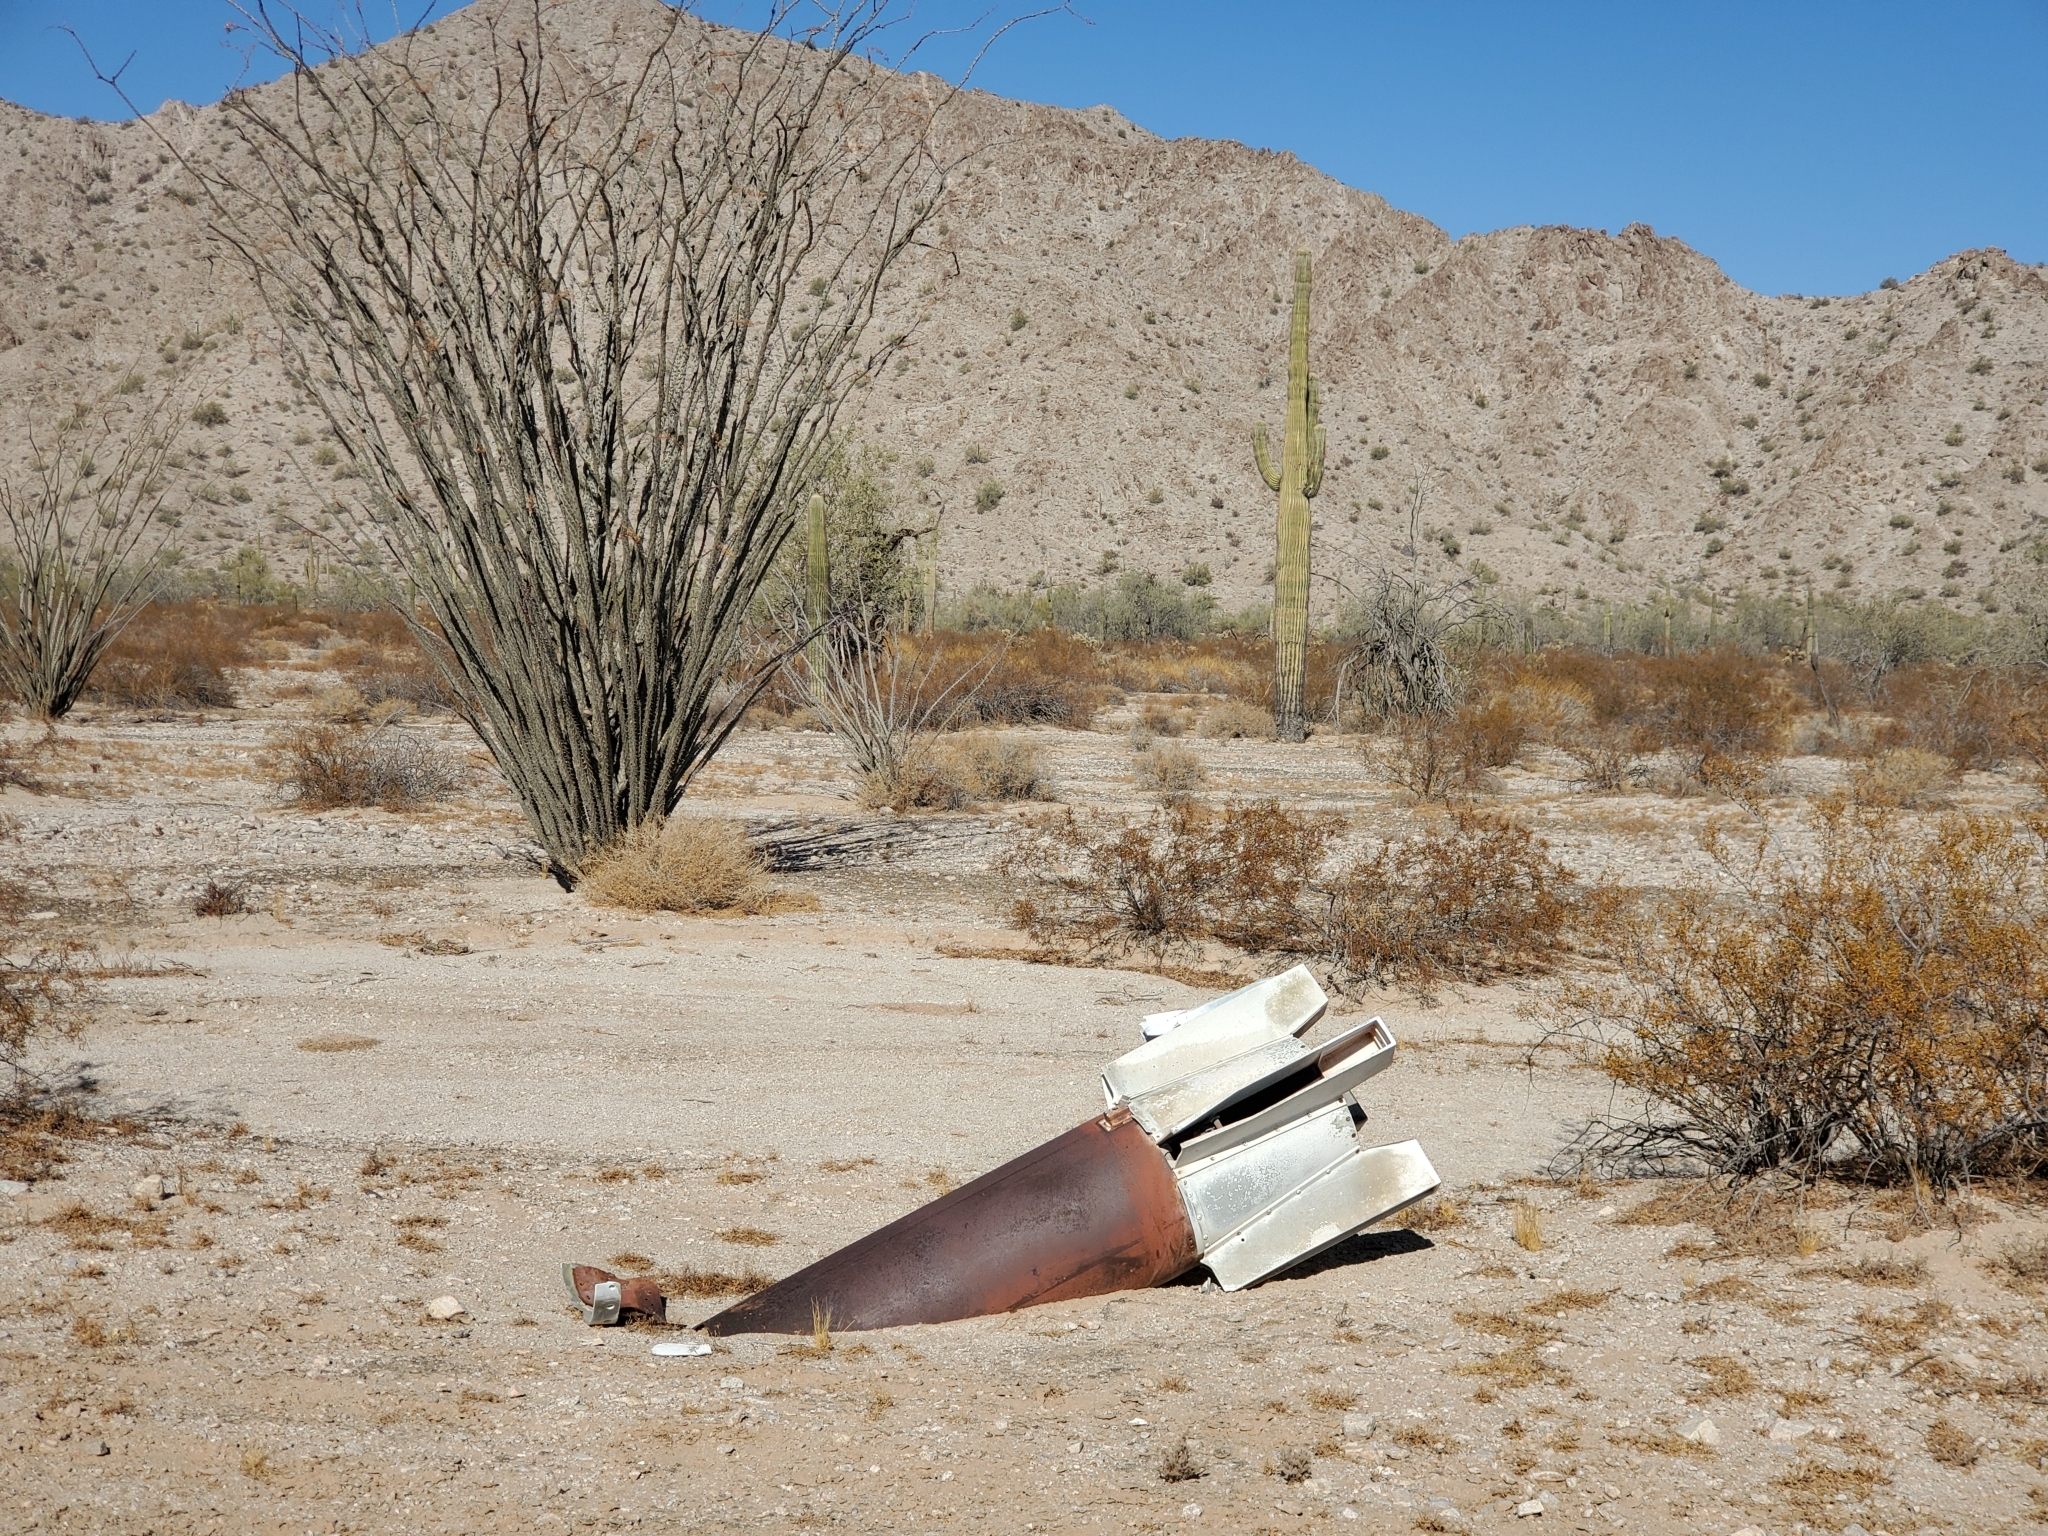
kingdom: Plantae
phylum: Tracheophyta
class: Magnoliopsida
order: Ericales
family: Fouquieriaceae
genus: Fouquieria
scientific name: Fouquieria splendens
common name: Vine-cactus
